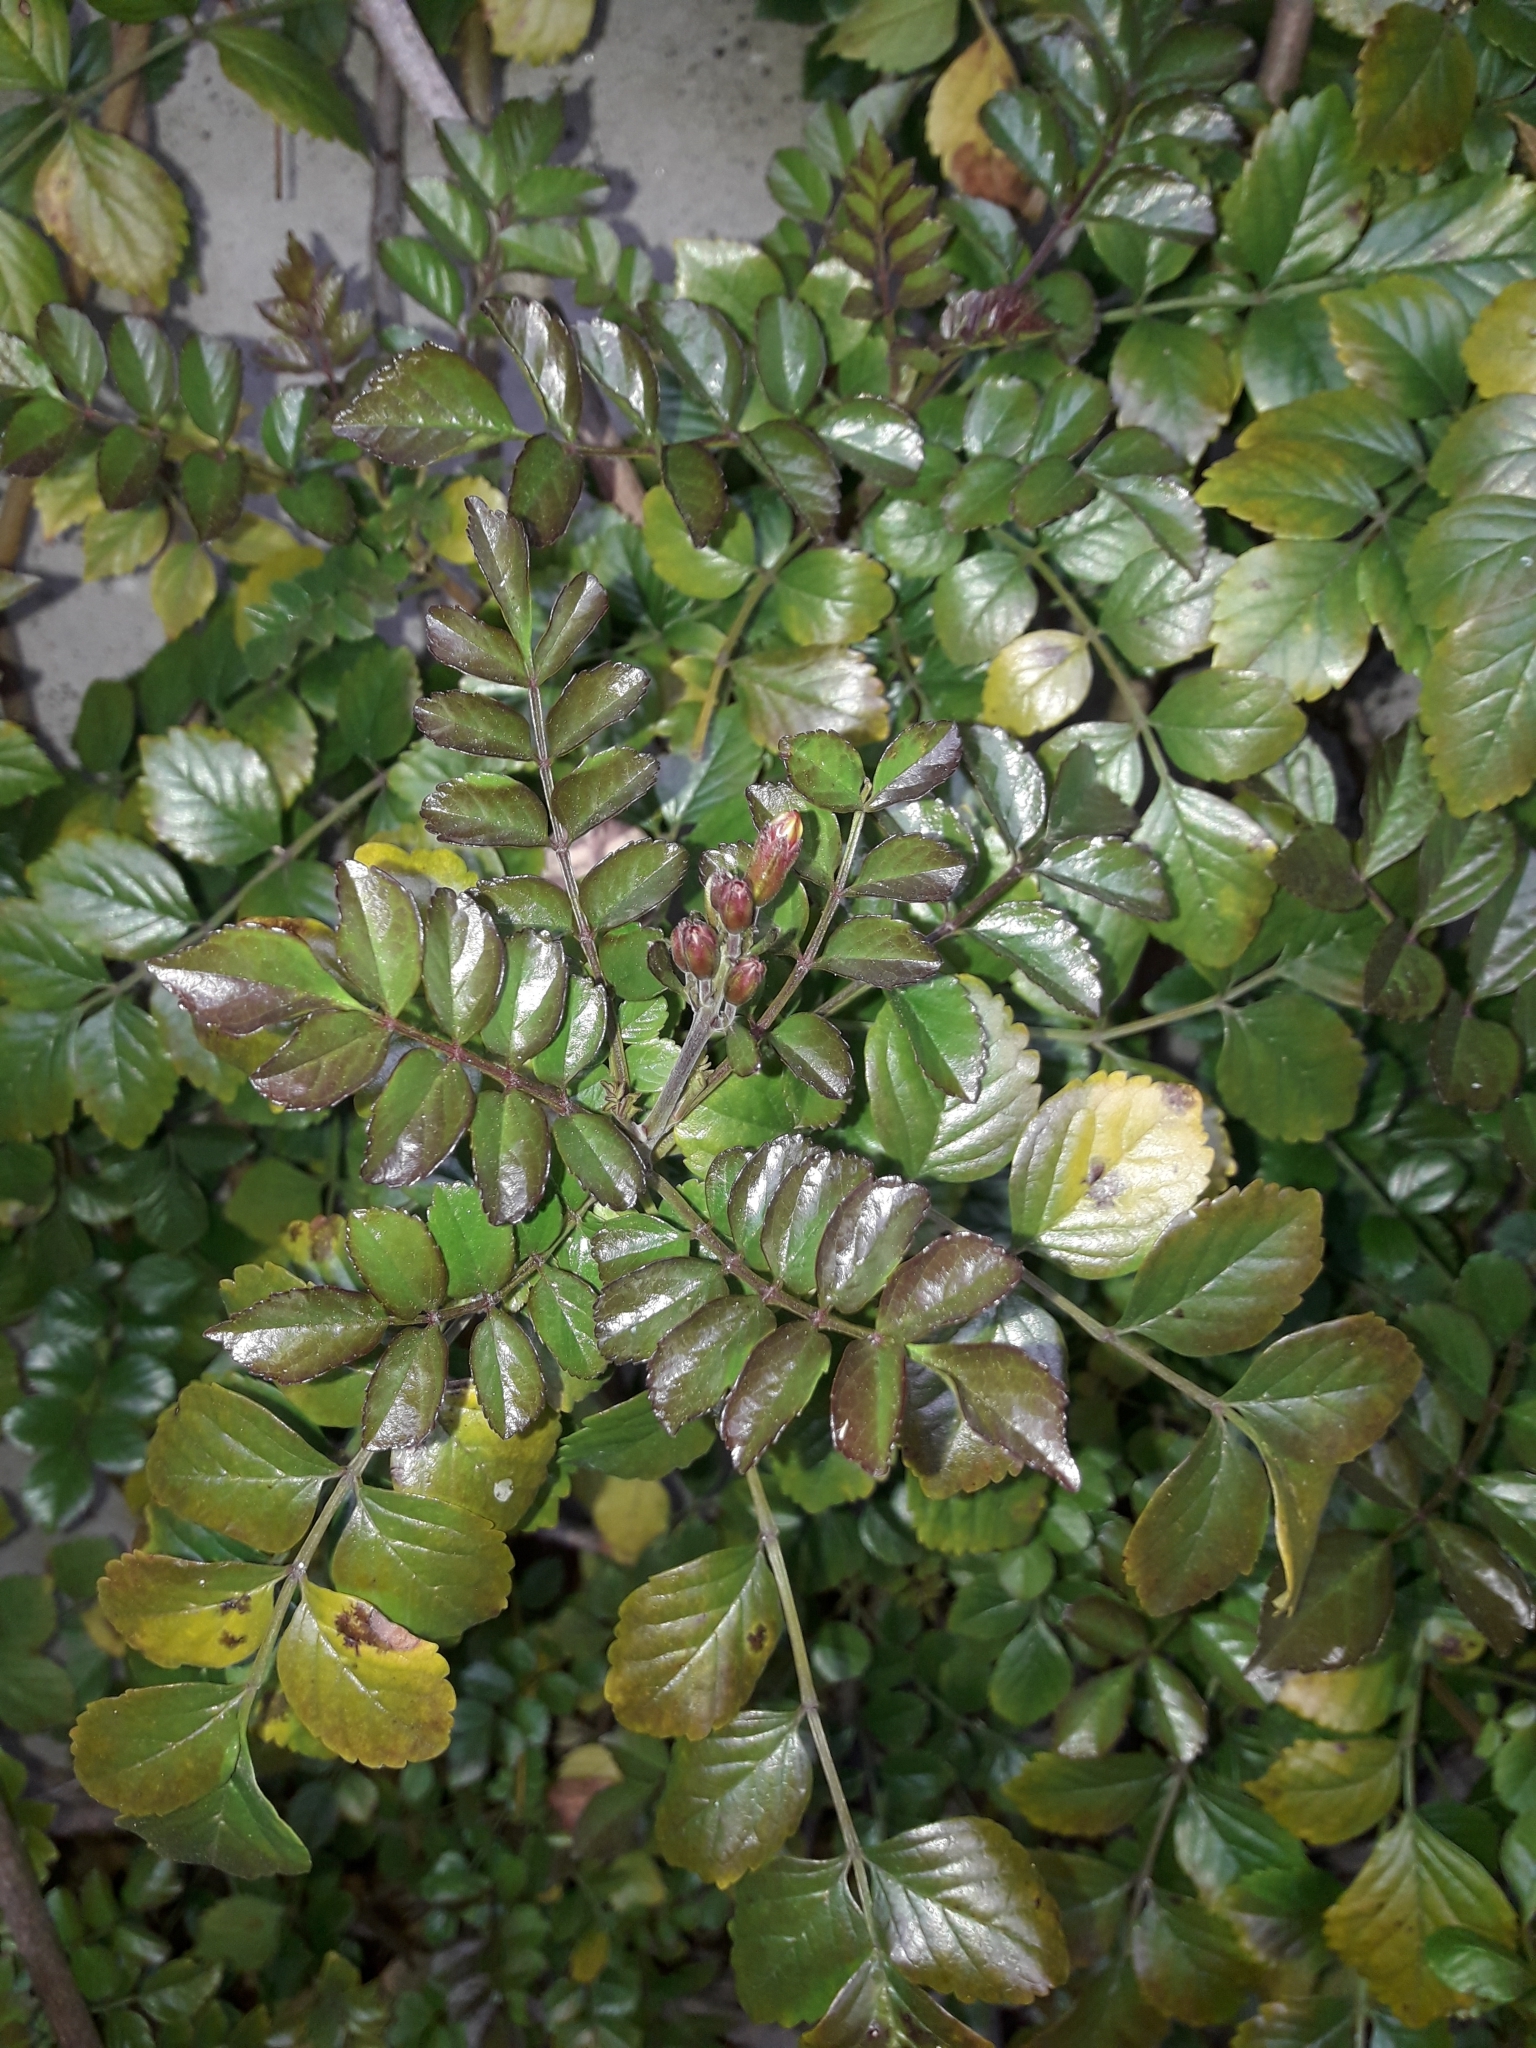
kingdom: Plantae
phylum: Tracheophyta
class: Magnoliopsida
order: Lamiales
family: Bignoniaceae
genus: Tecomaria
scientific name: Tecomaria capensis
